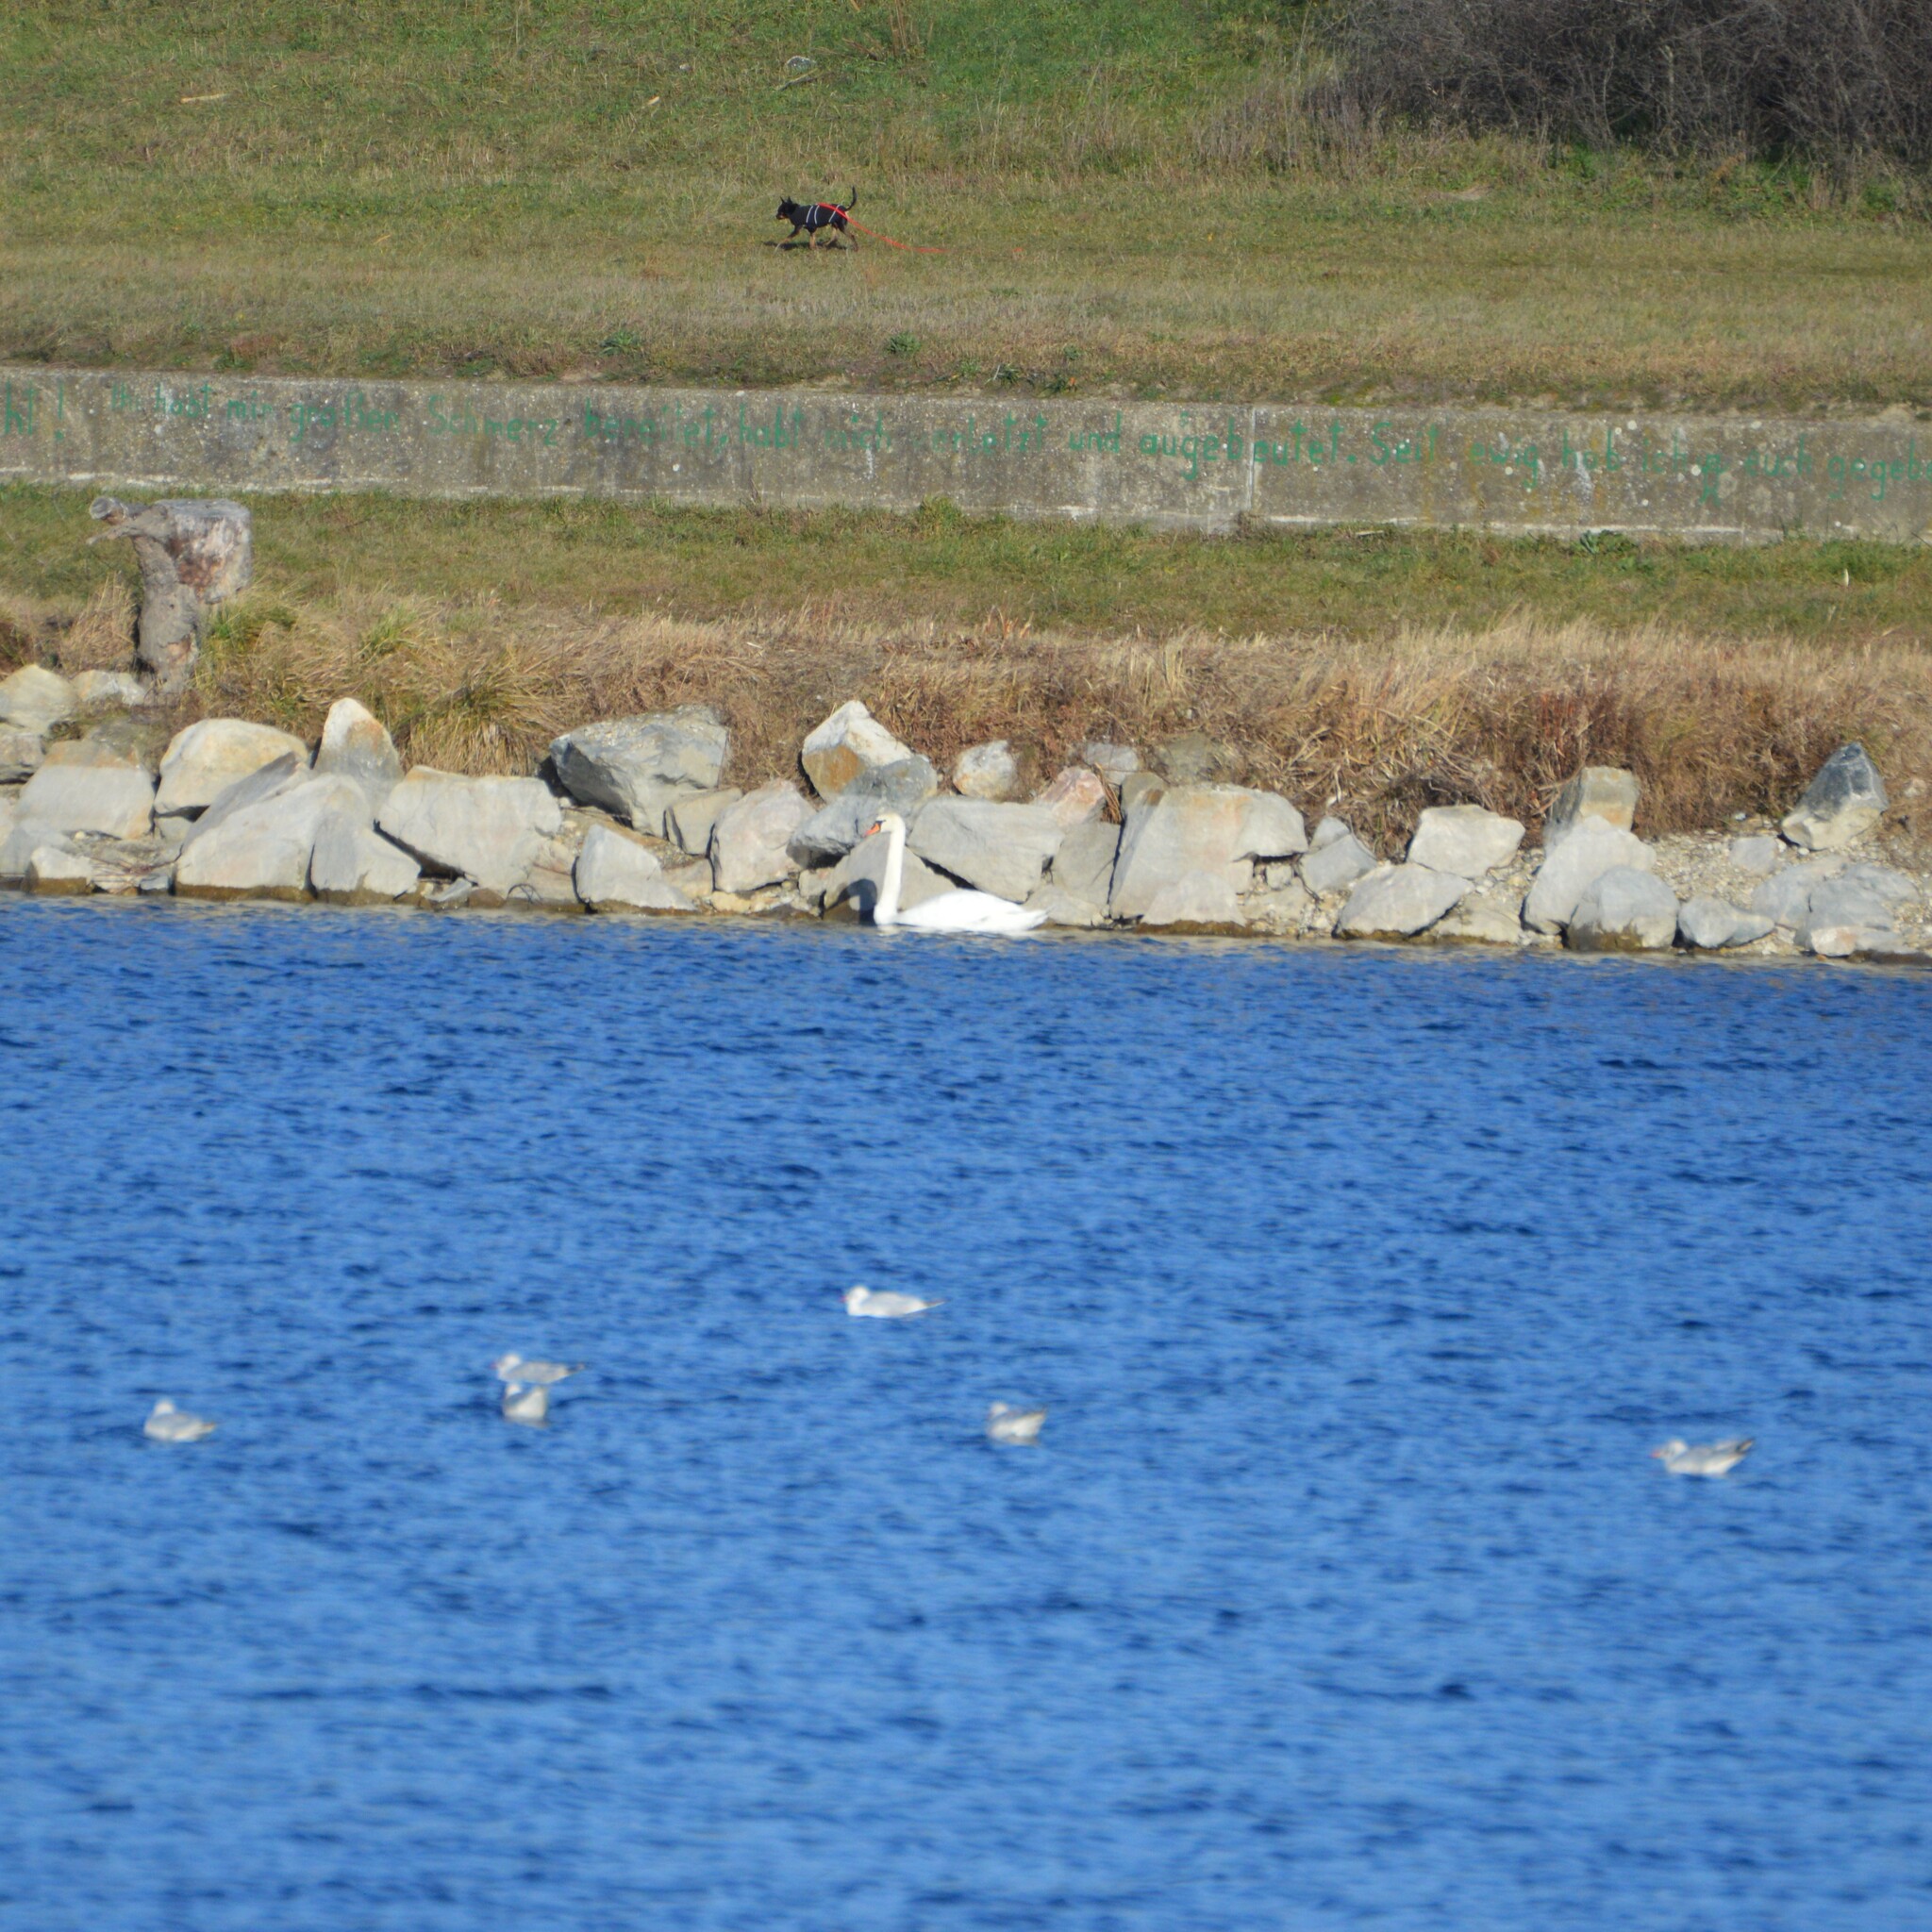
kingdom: Animalia
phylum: Chordata
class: Aves
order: Anseriformes
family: Anatidae
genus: Cygnus
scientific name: Cygnus olor
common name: Mute swan
